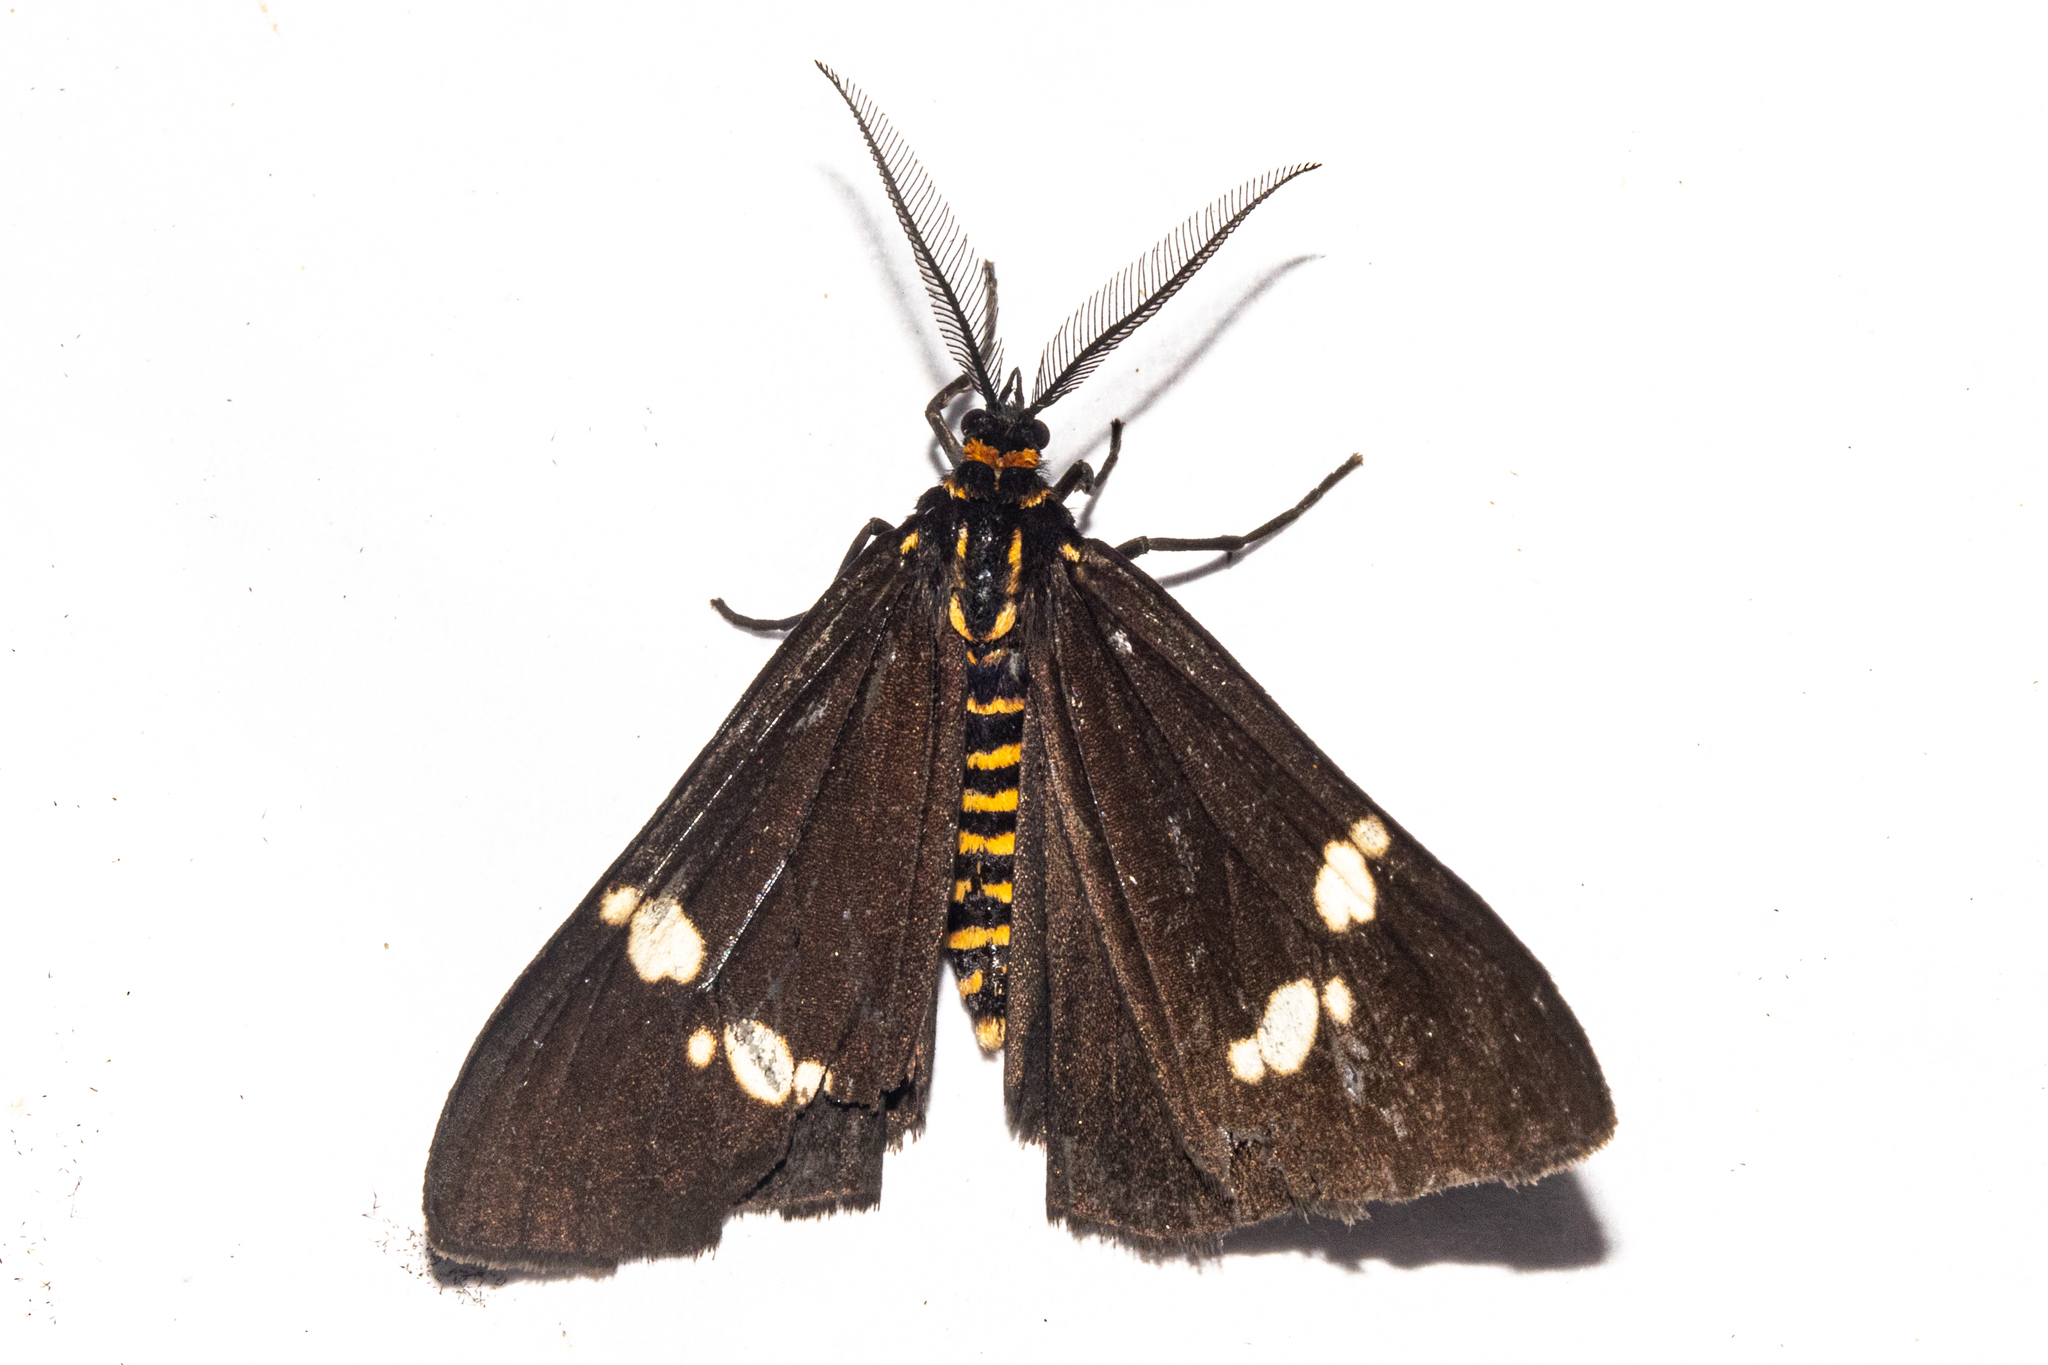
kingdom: Animalia
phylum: Arthropoda
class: Insecta
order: Lepidoptera
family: Erebidae
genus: Nyctemera
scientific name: Nyctemera annulatum
